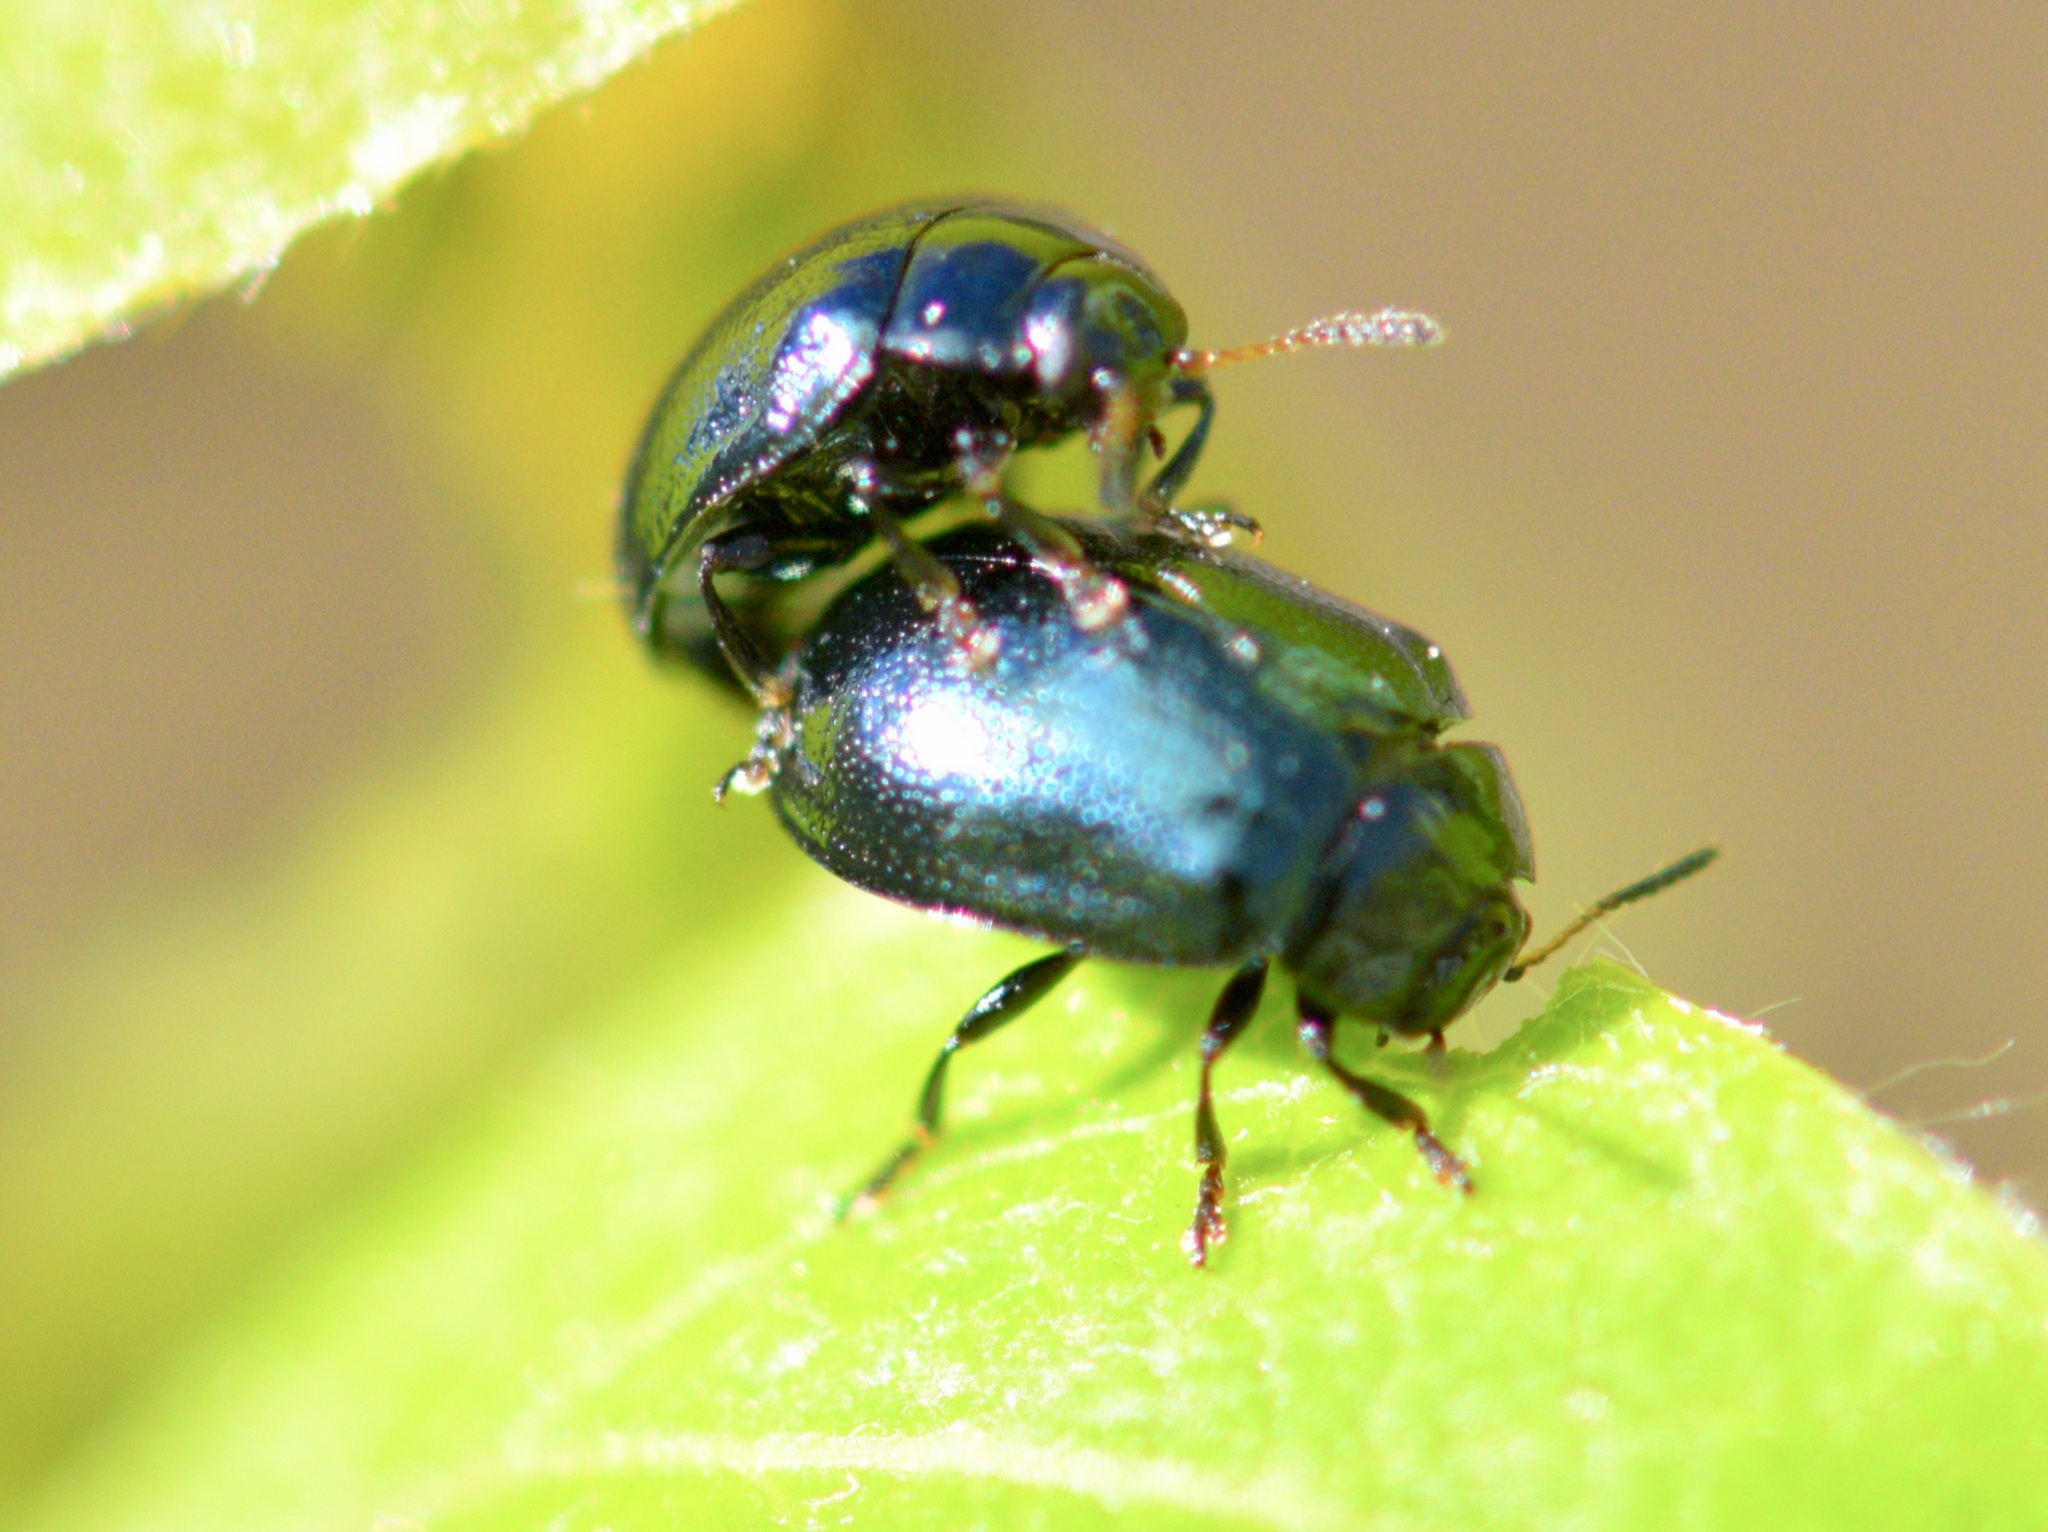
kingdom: Animalia
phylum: Arthropoda
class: Insecta
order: Coleoptera
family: Chrysomelidae
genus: Plagiodera
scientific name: Plagiodera versicolora
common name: Imported willow leaf beetle
